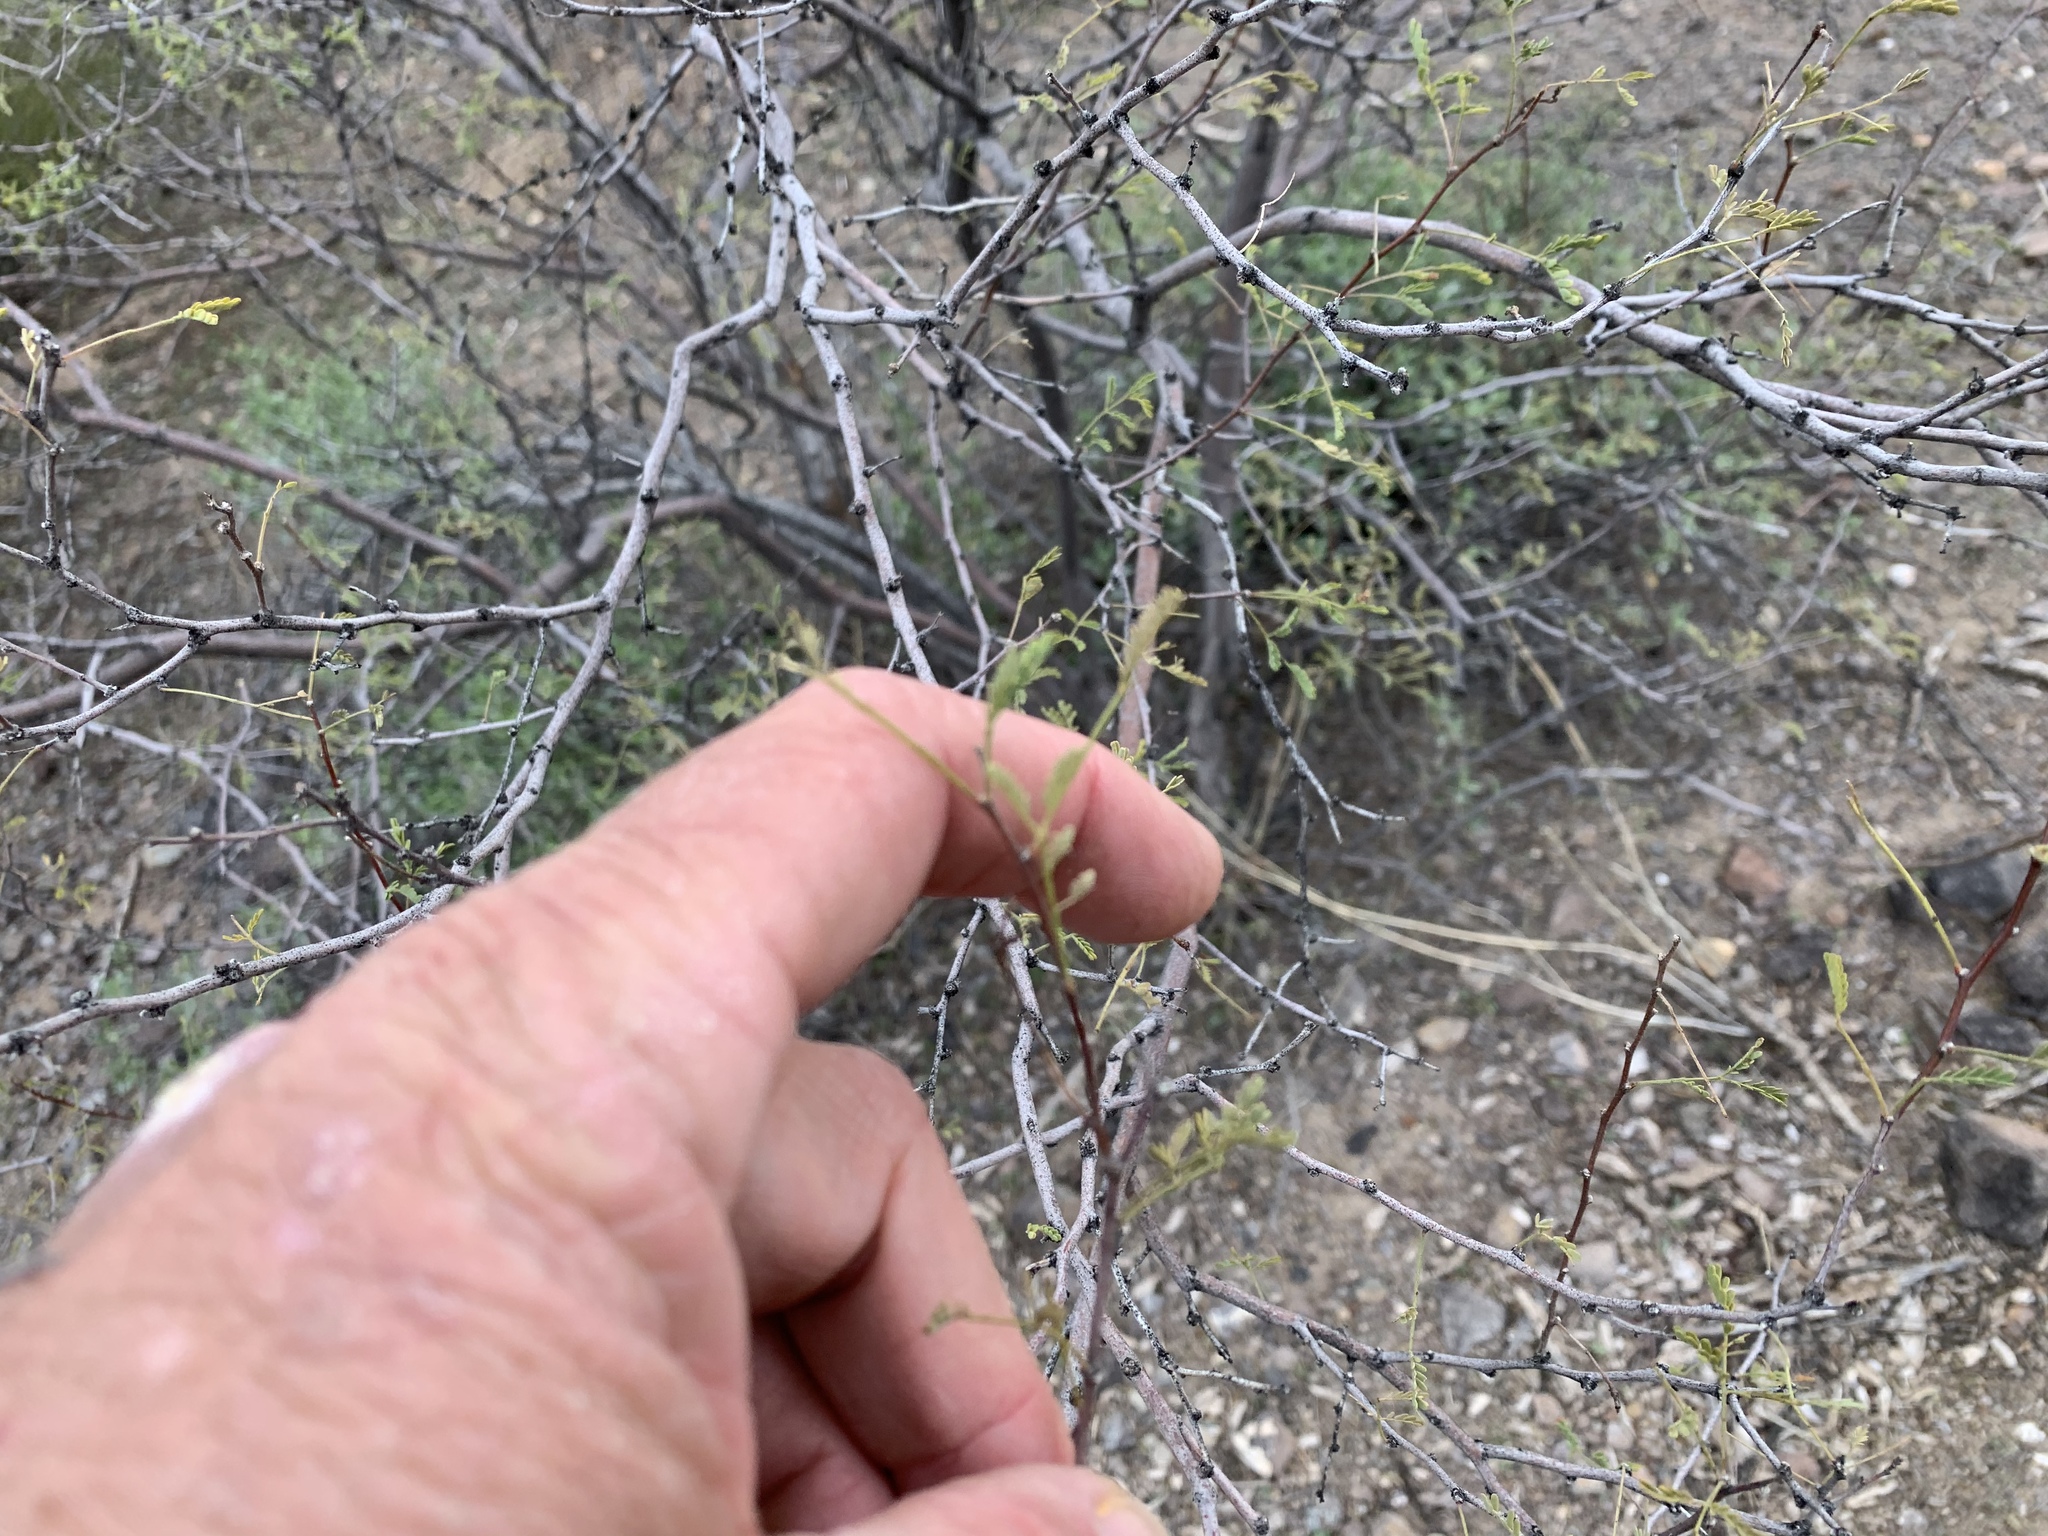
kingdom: Plantae
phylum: Tracheophyta
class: Magnoliopsida
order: Fabales
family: Fabaceae
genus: Vachellia
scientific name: Vachellia constricta
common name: Mescat acacia
